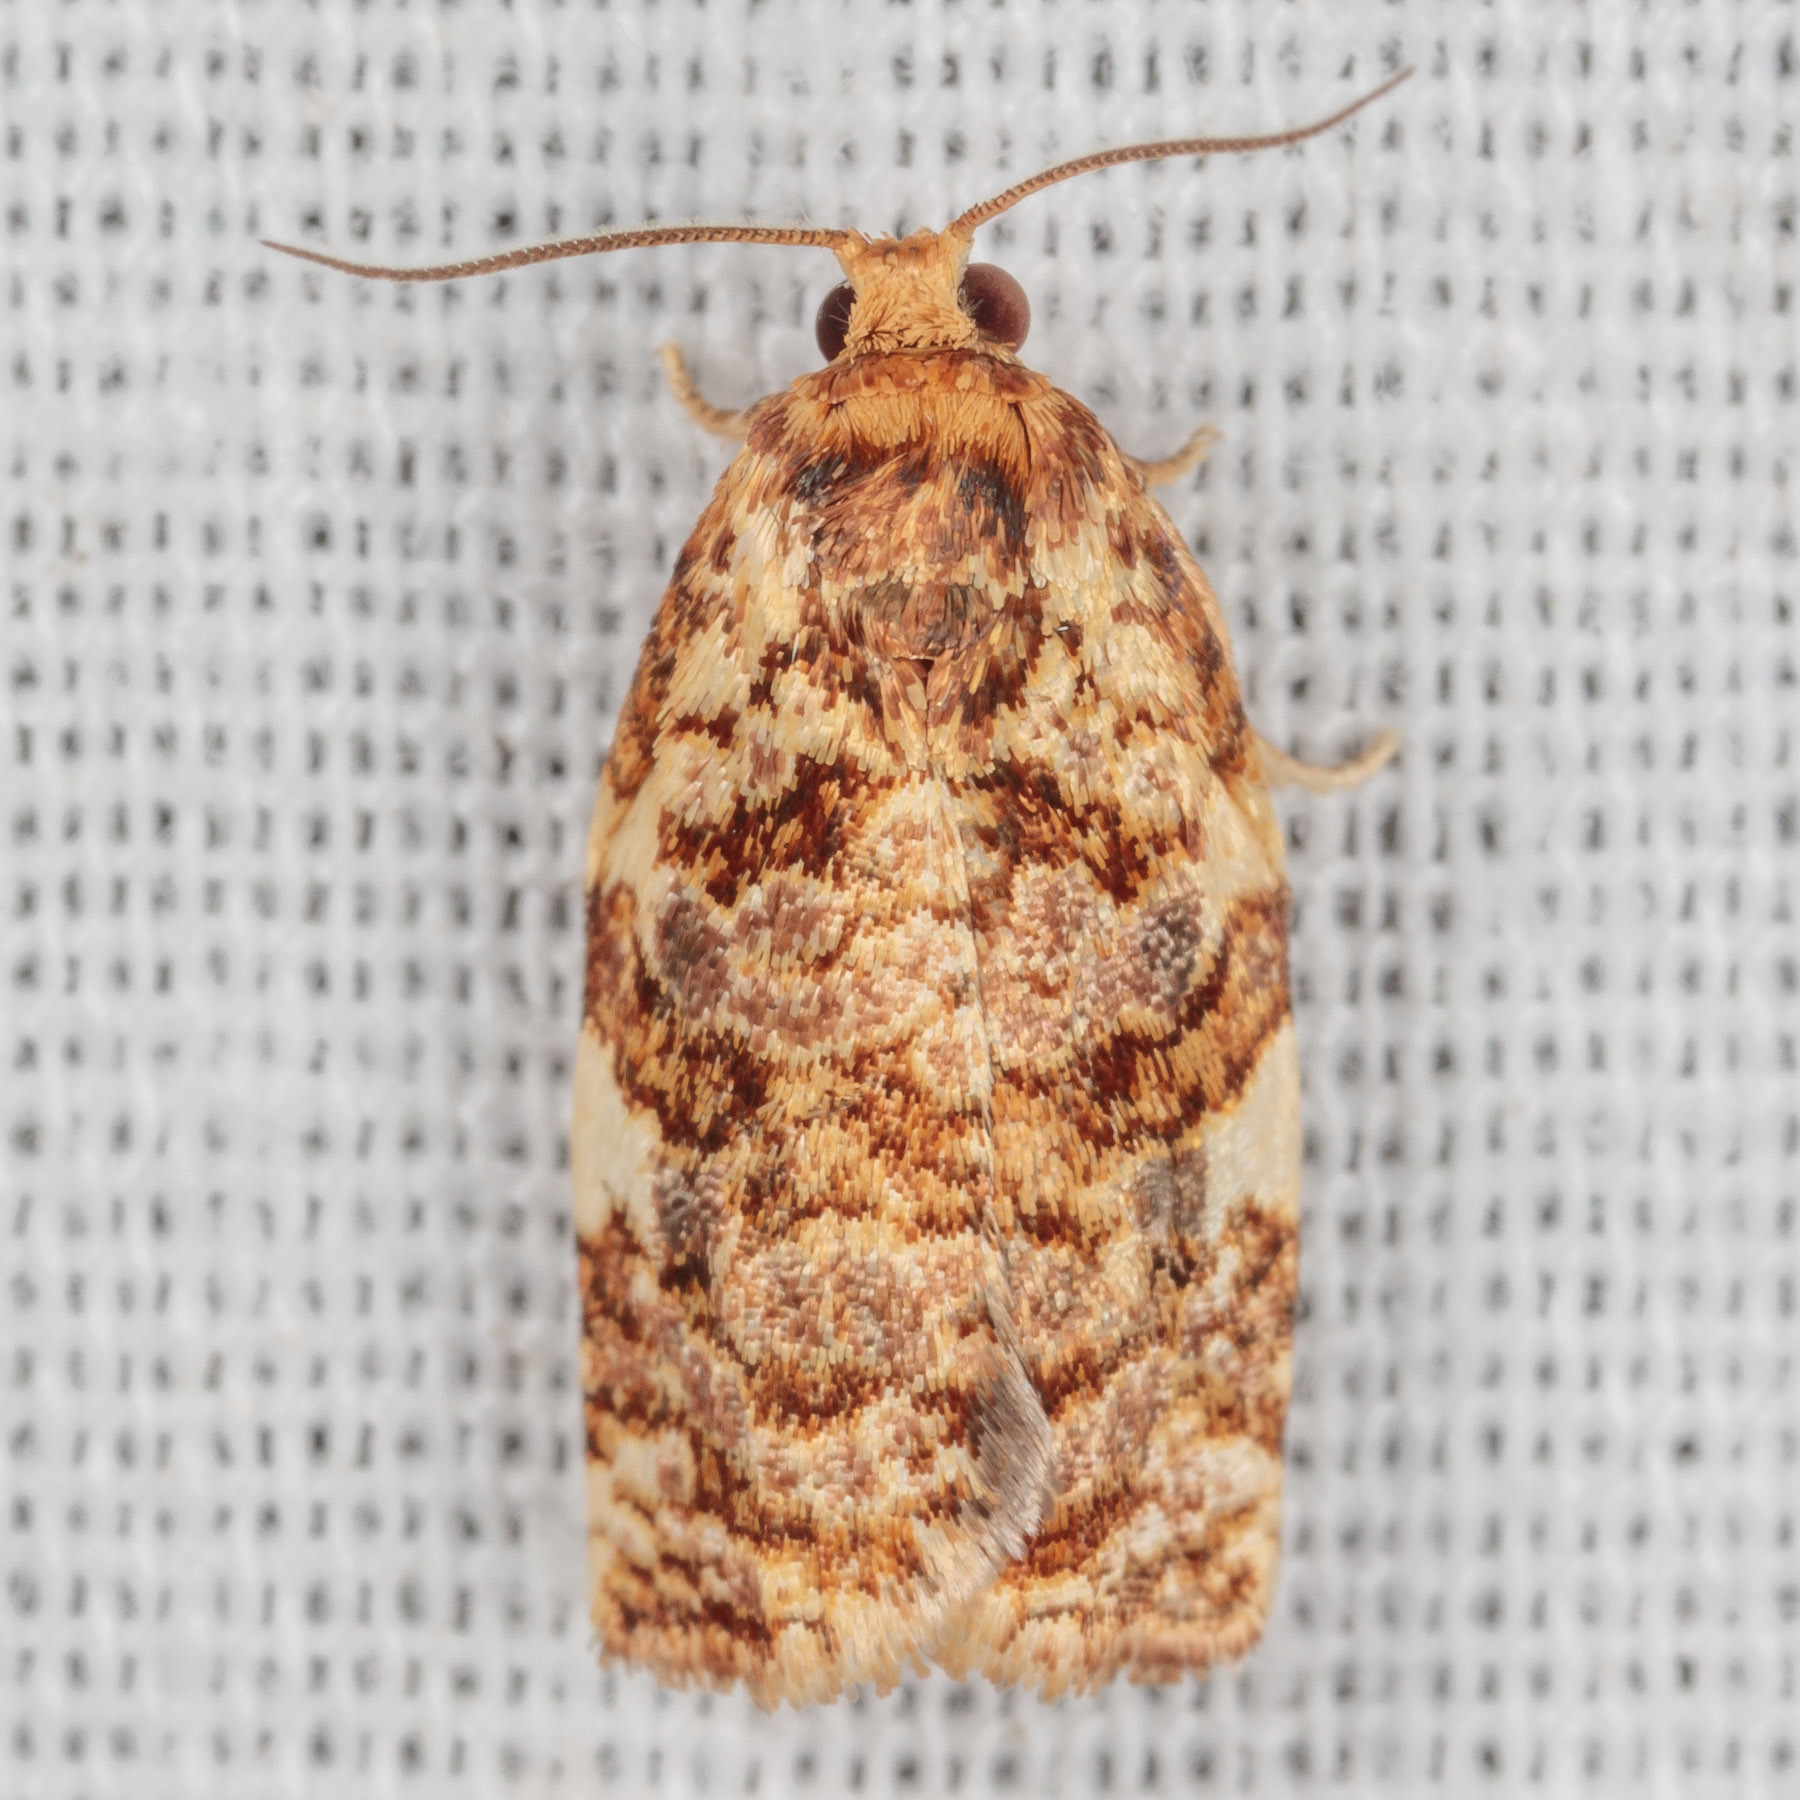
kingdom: Animalia
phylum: Arthropoda
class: Insecta
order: Lepidoptera
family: Tortricidae
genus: Archips
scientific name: Archips argyrospila
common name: Fruit-tree leafroller moth
